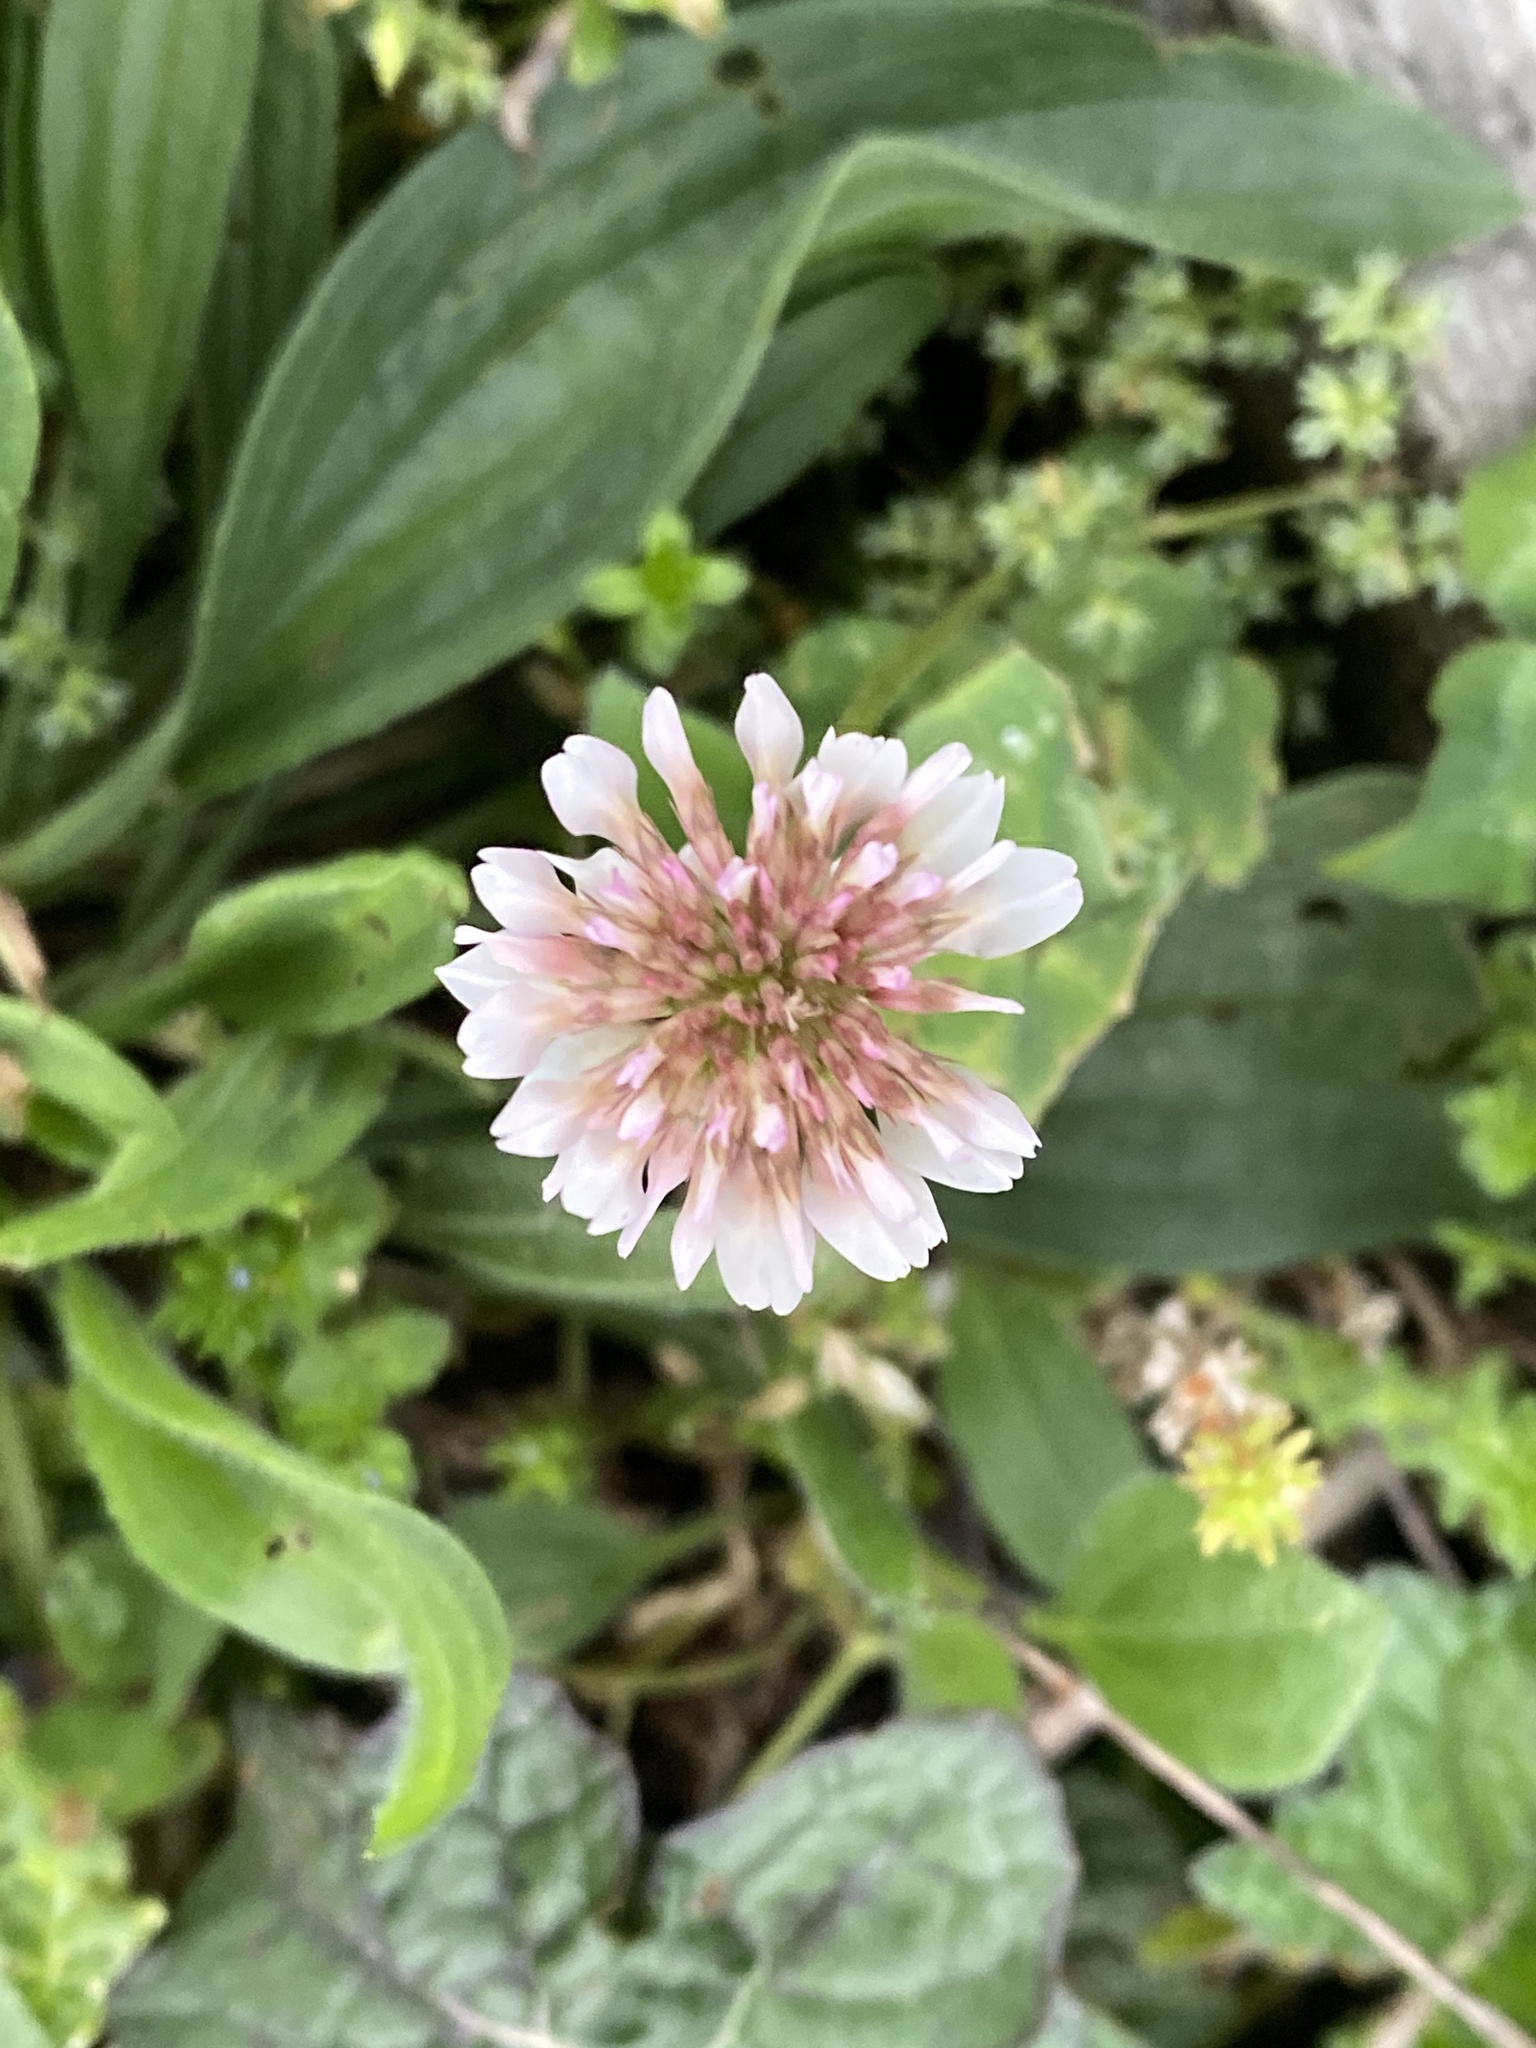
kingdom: Plantae
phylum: Tracheophyta
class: Magnoliopsida
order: Fabales
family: Fabaceae
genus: Trifolium
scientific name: Trifolium repens
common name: White clover
